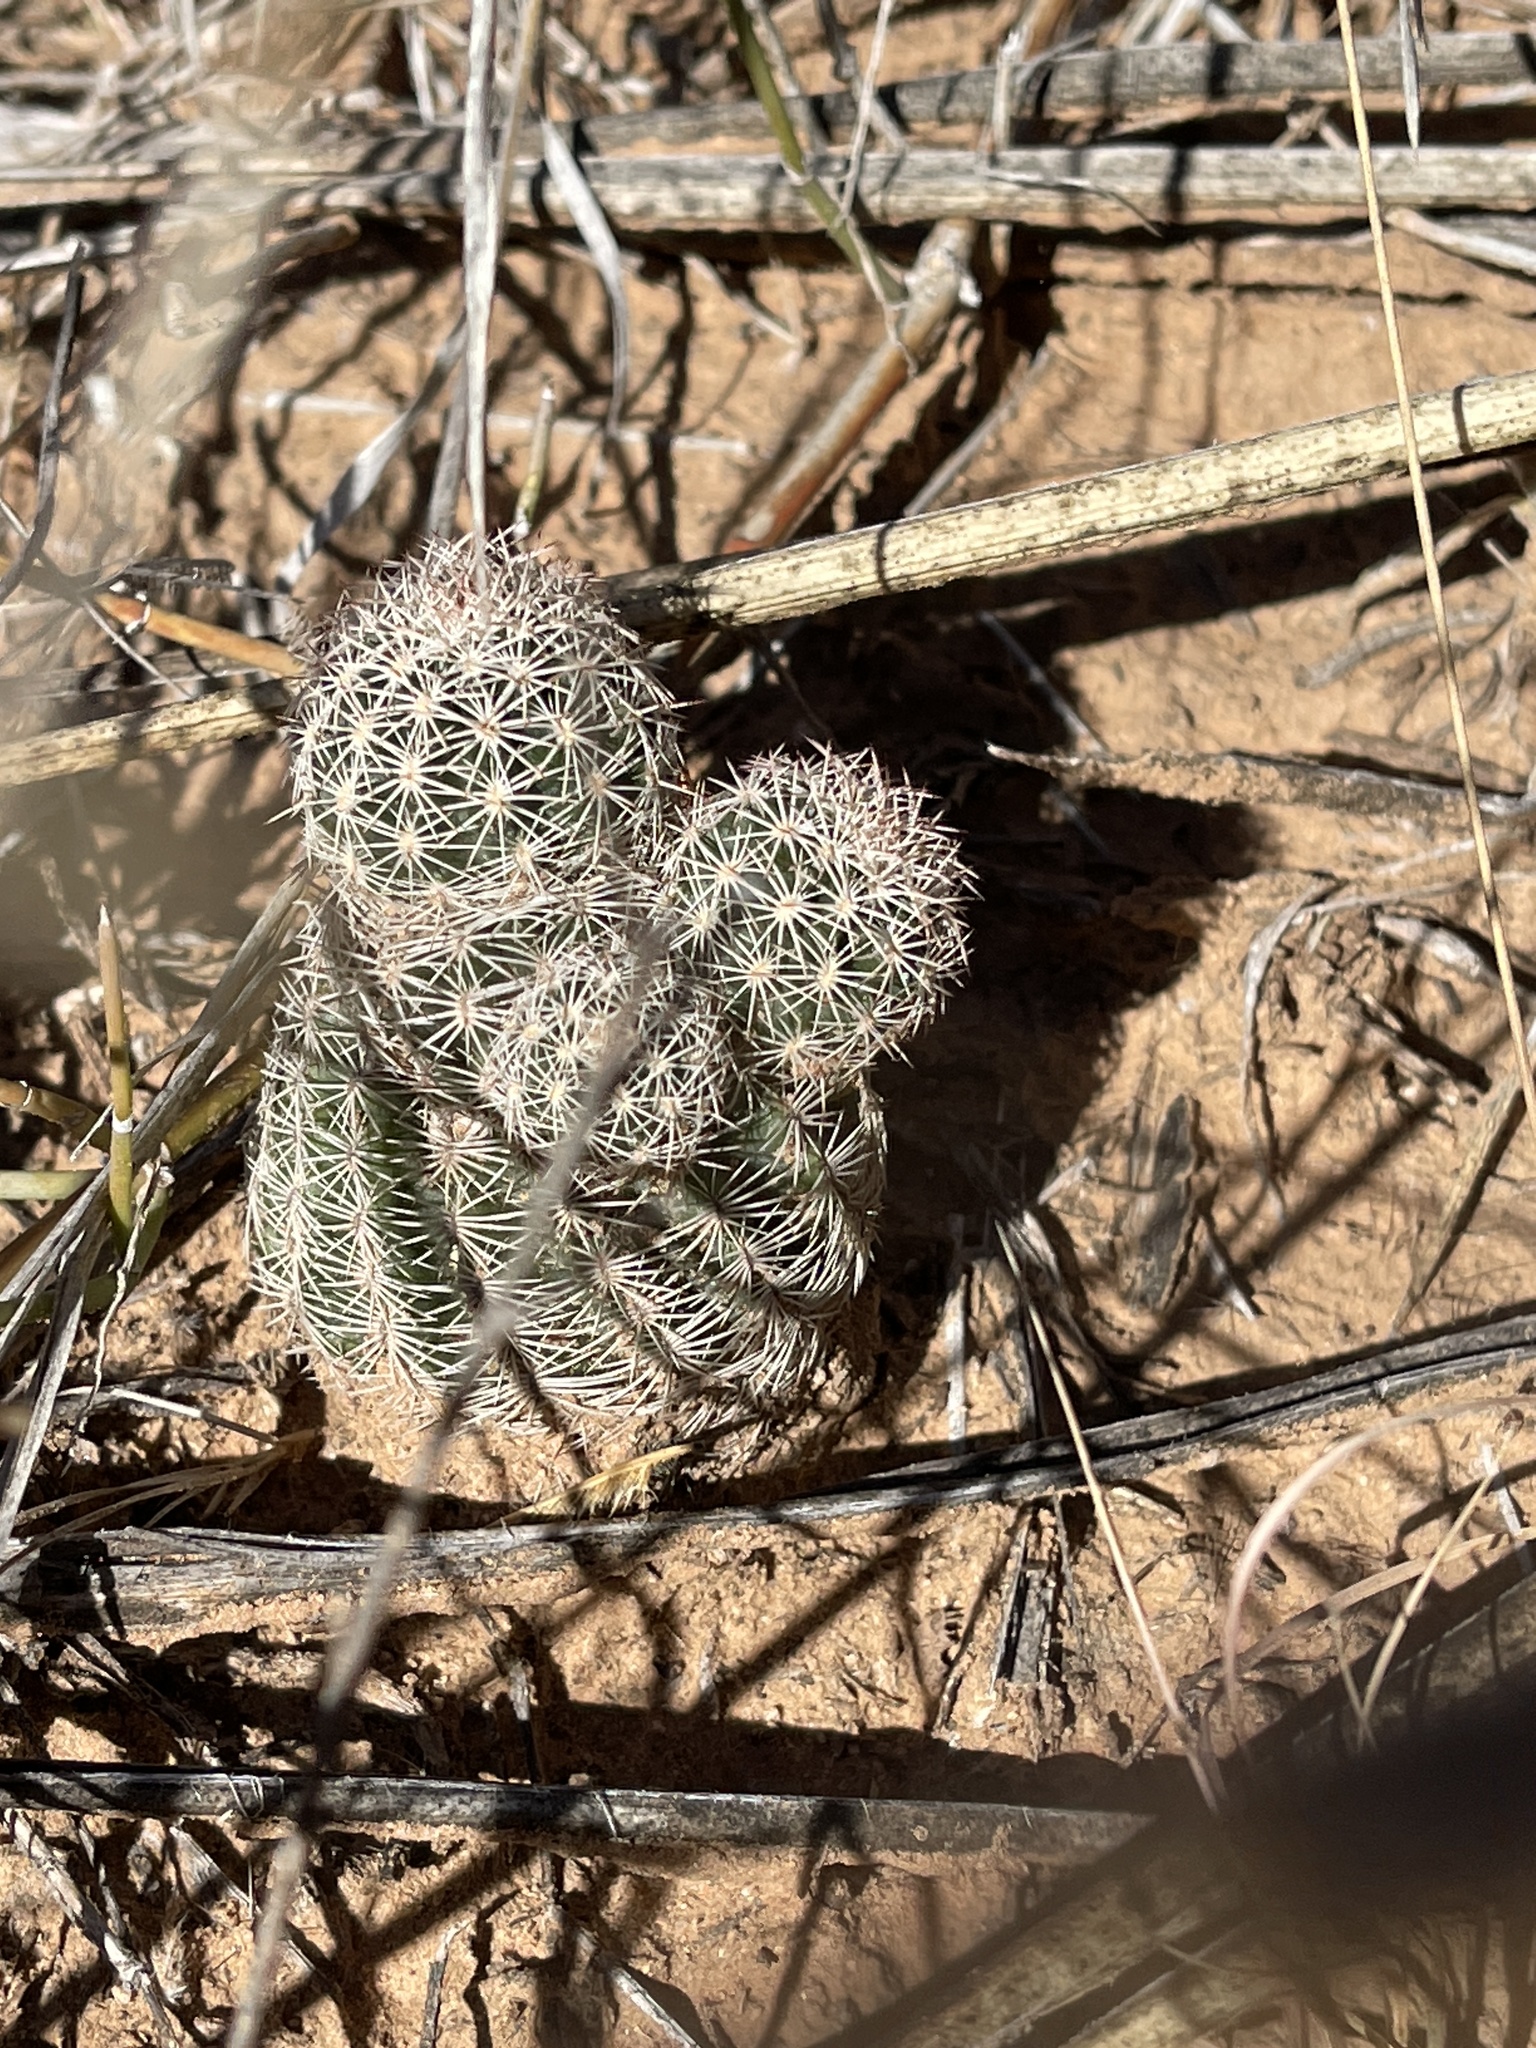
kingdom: Plantae
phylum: Tracheophyta
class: Magnoliopsida
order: Caryophyllales
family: Cactaceae
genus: Echinocereus
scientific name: Echinocereus reichenbachii
